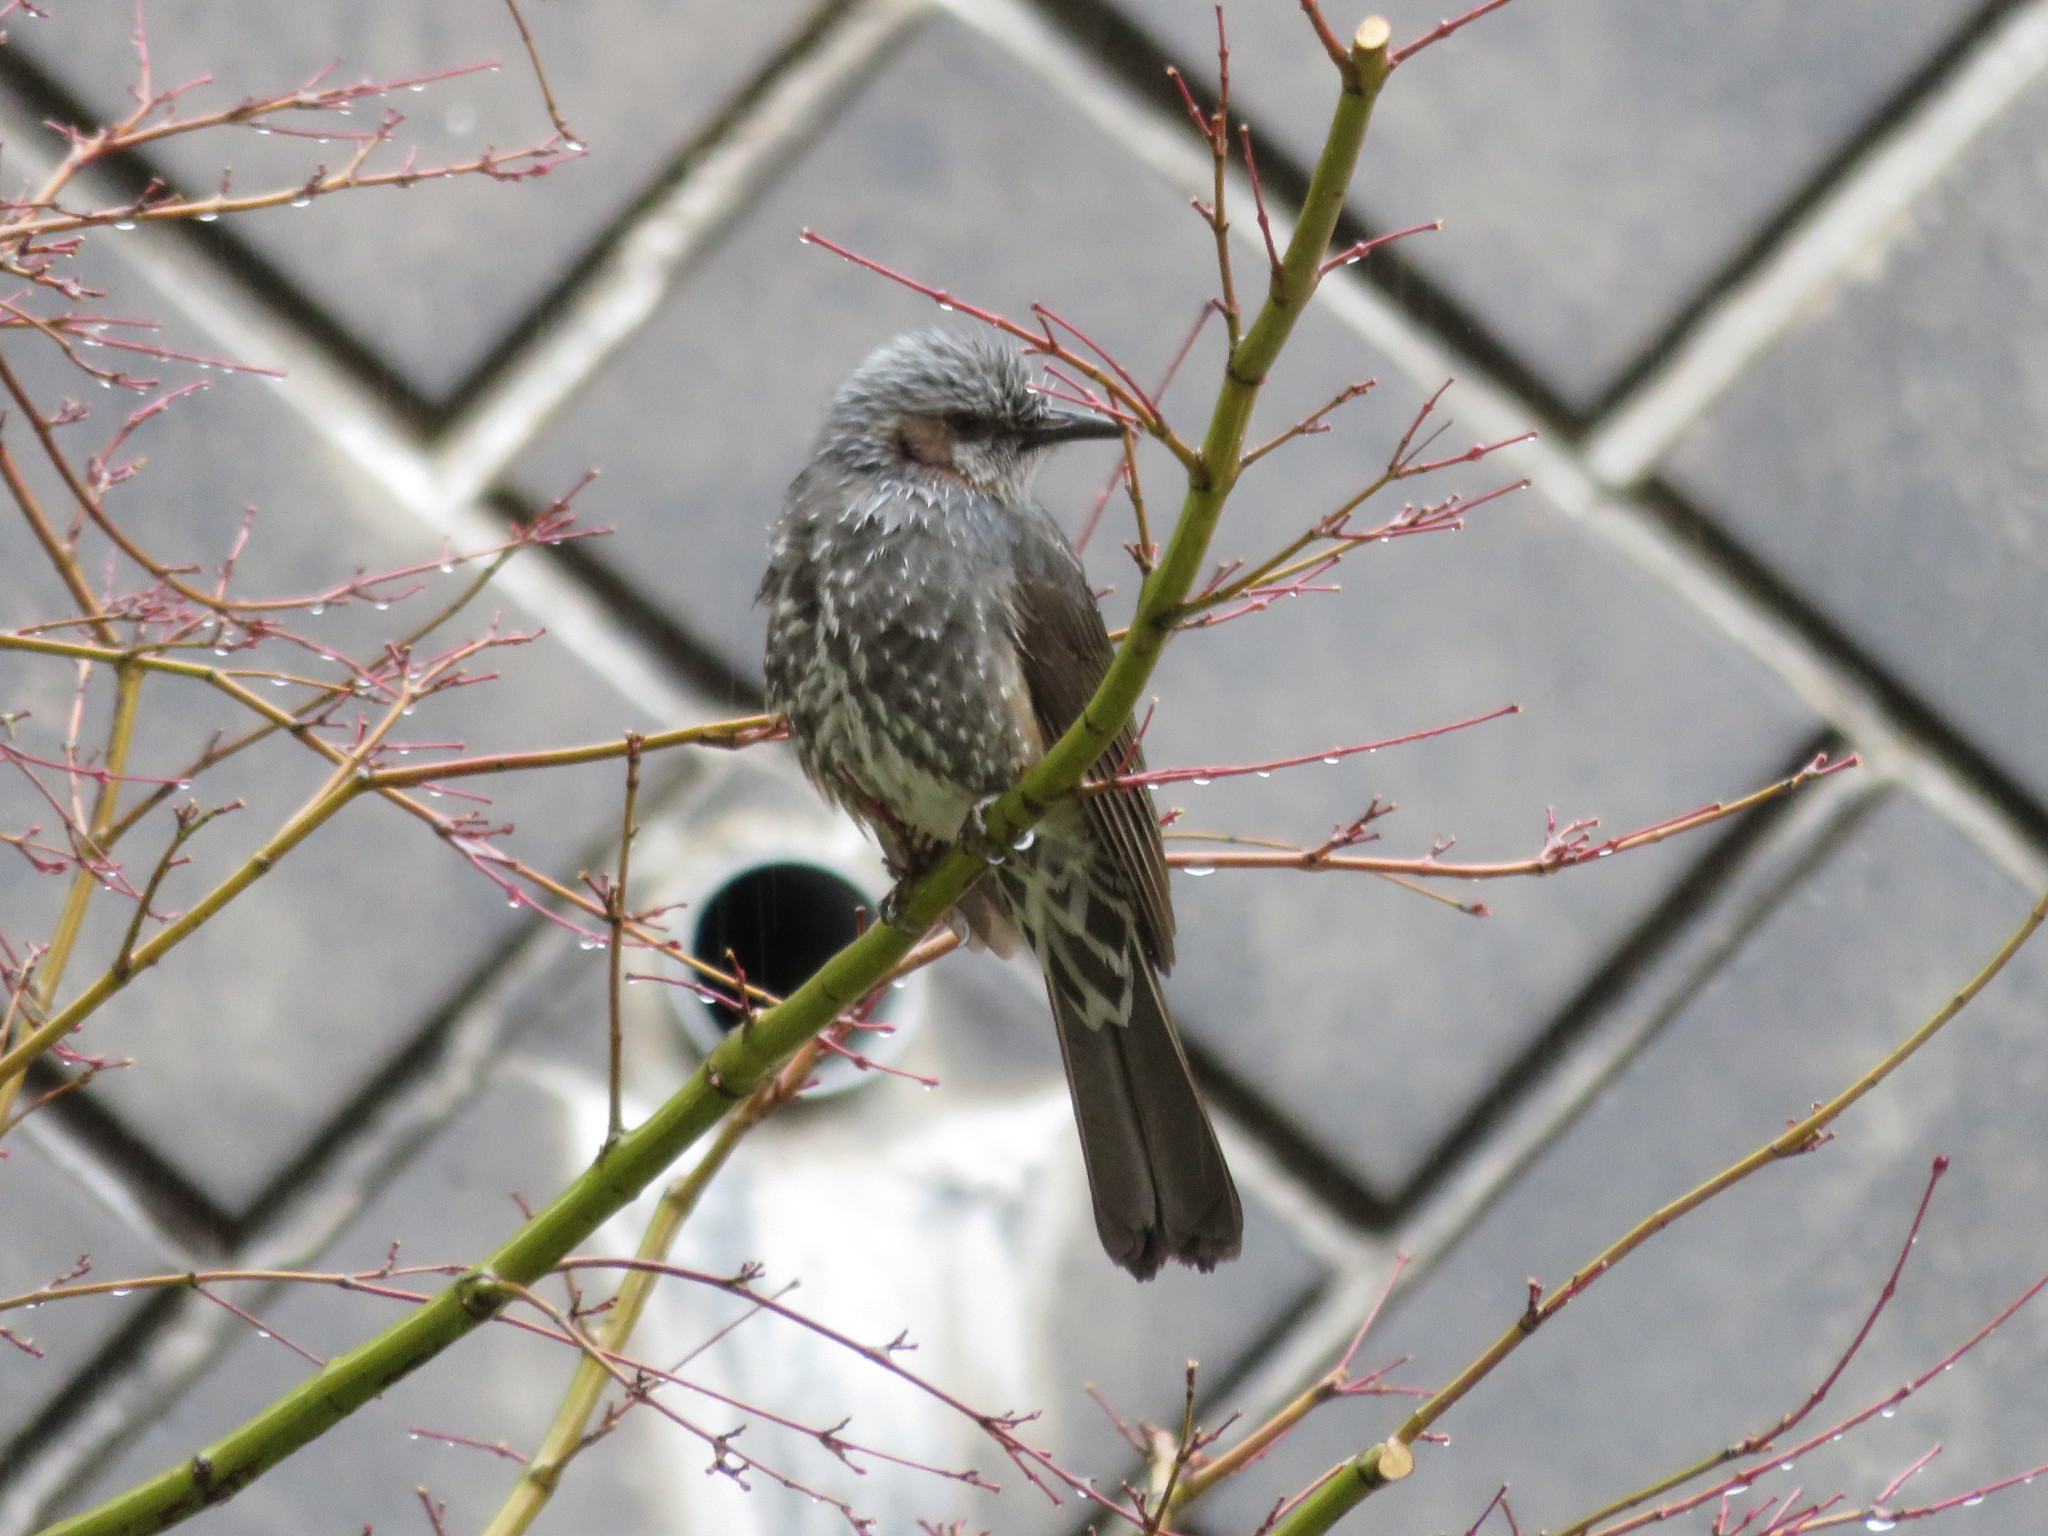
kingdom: Animalia
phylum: Chordata
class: Aves
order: Passeriformes
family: Pycnonotidae
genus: Hypsipetes
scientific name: Hypsipetes amaurotis
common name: Brown-eared bulbul
